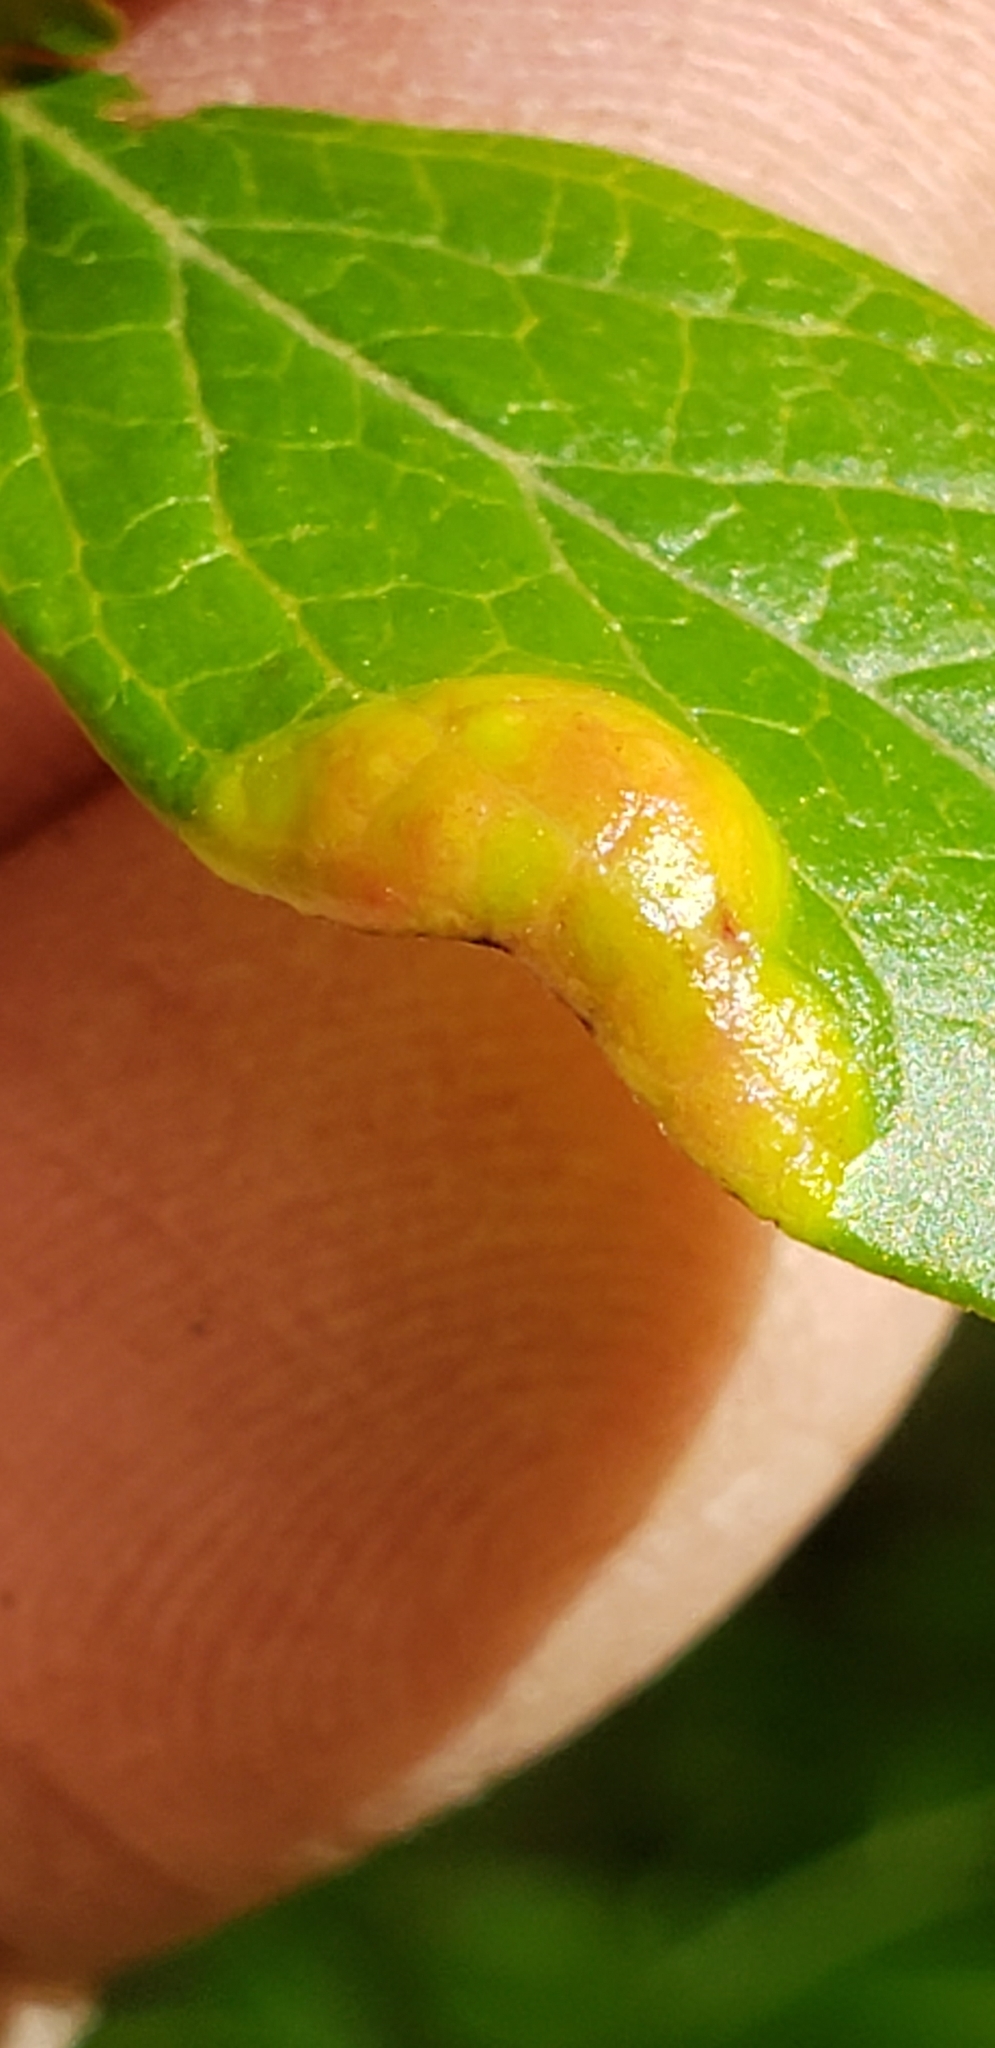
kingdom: Fungi
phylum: Basidiomycota
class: Exobasidiomycetes
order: Exobasidiales
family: Exobasidiaceae
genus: Exobasidium
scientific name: Exobasidium vaccinii
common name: Cowberry redleaf
